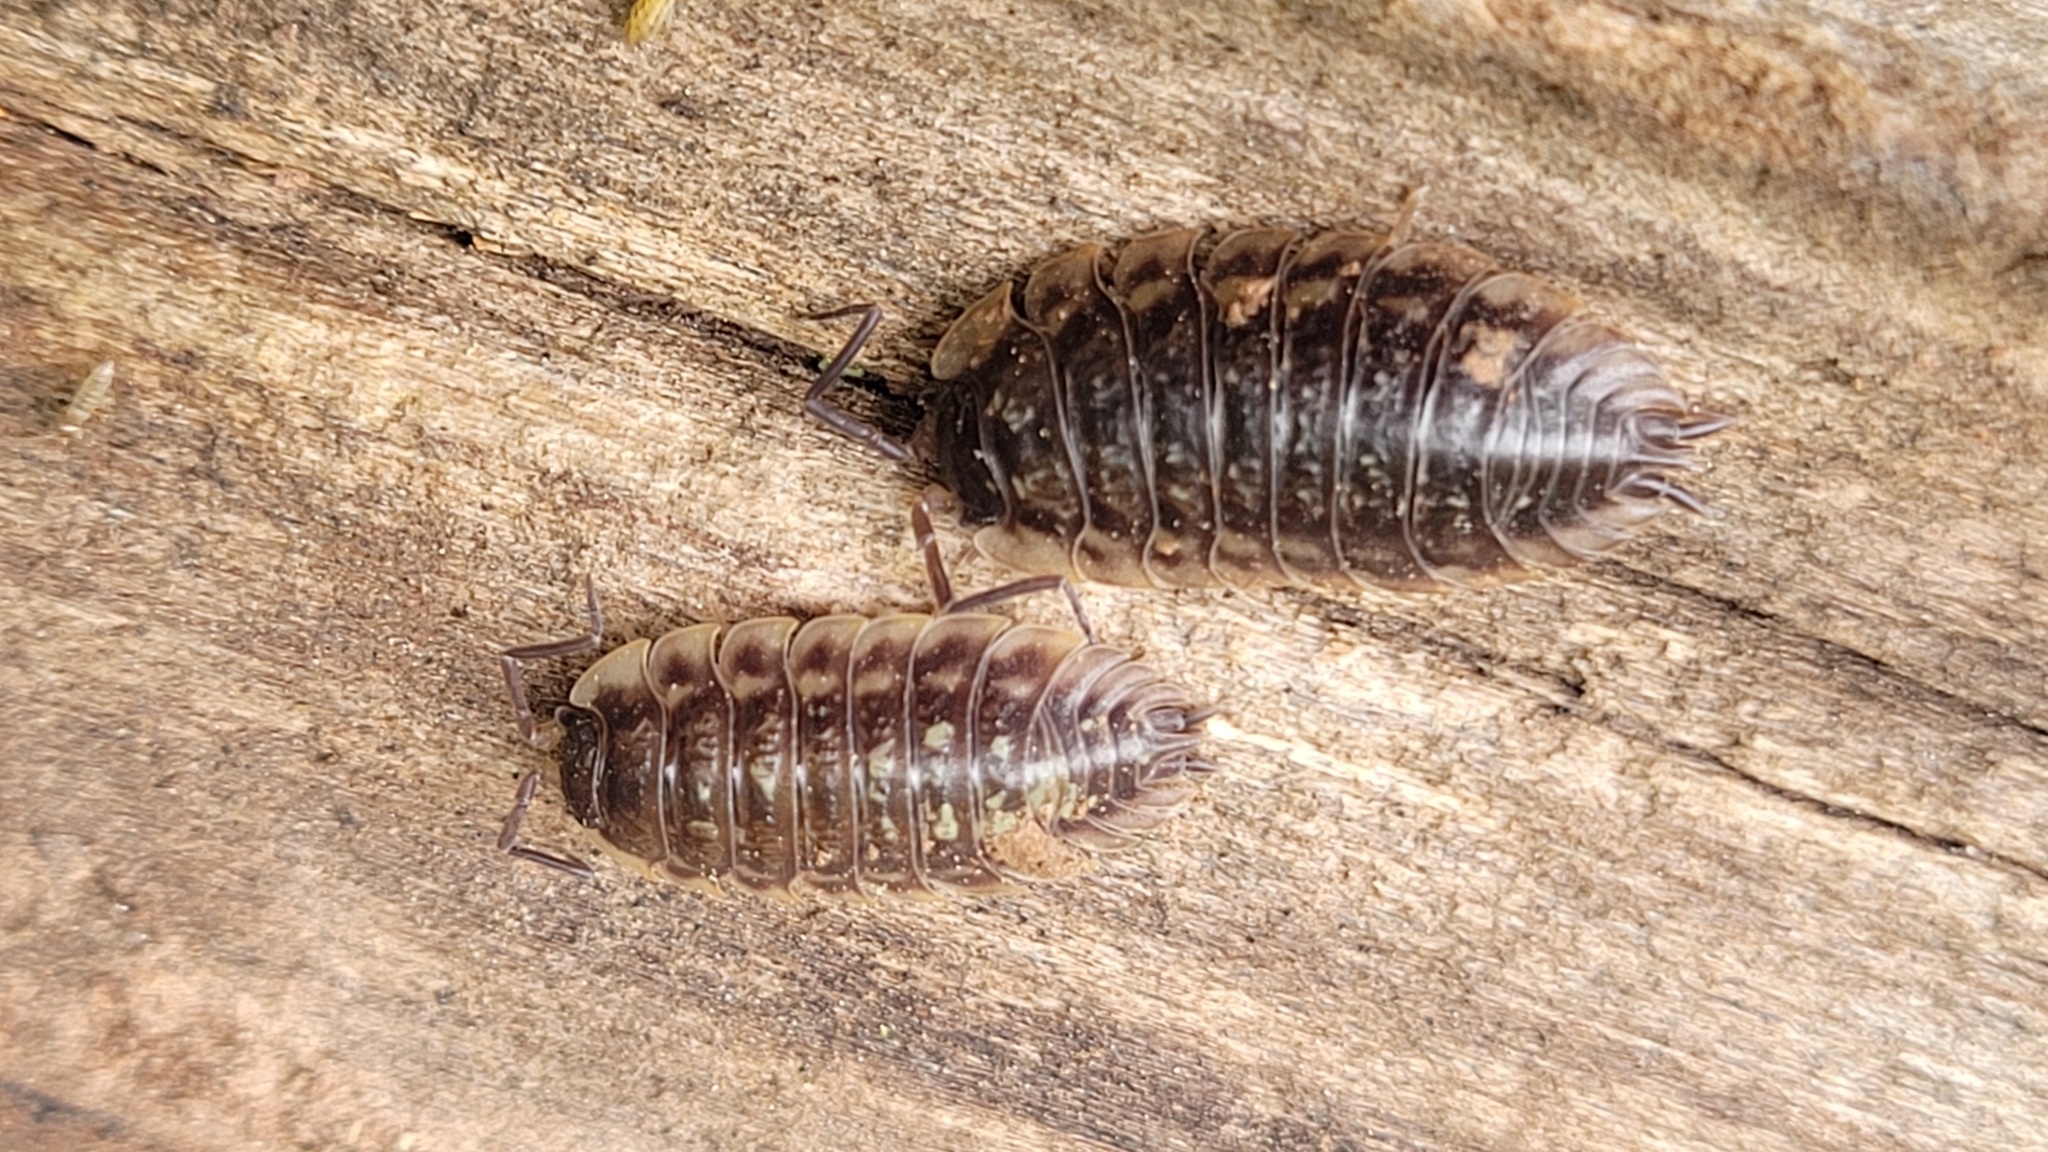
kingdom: Animalia
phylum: Arthropoda
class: Malacostraca
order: Isopoda
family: Oniscidae
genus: Oniscus
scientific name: Oniscus asellus
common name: Common shiny woodlouse
